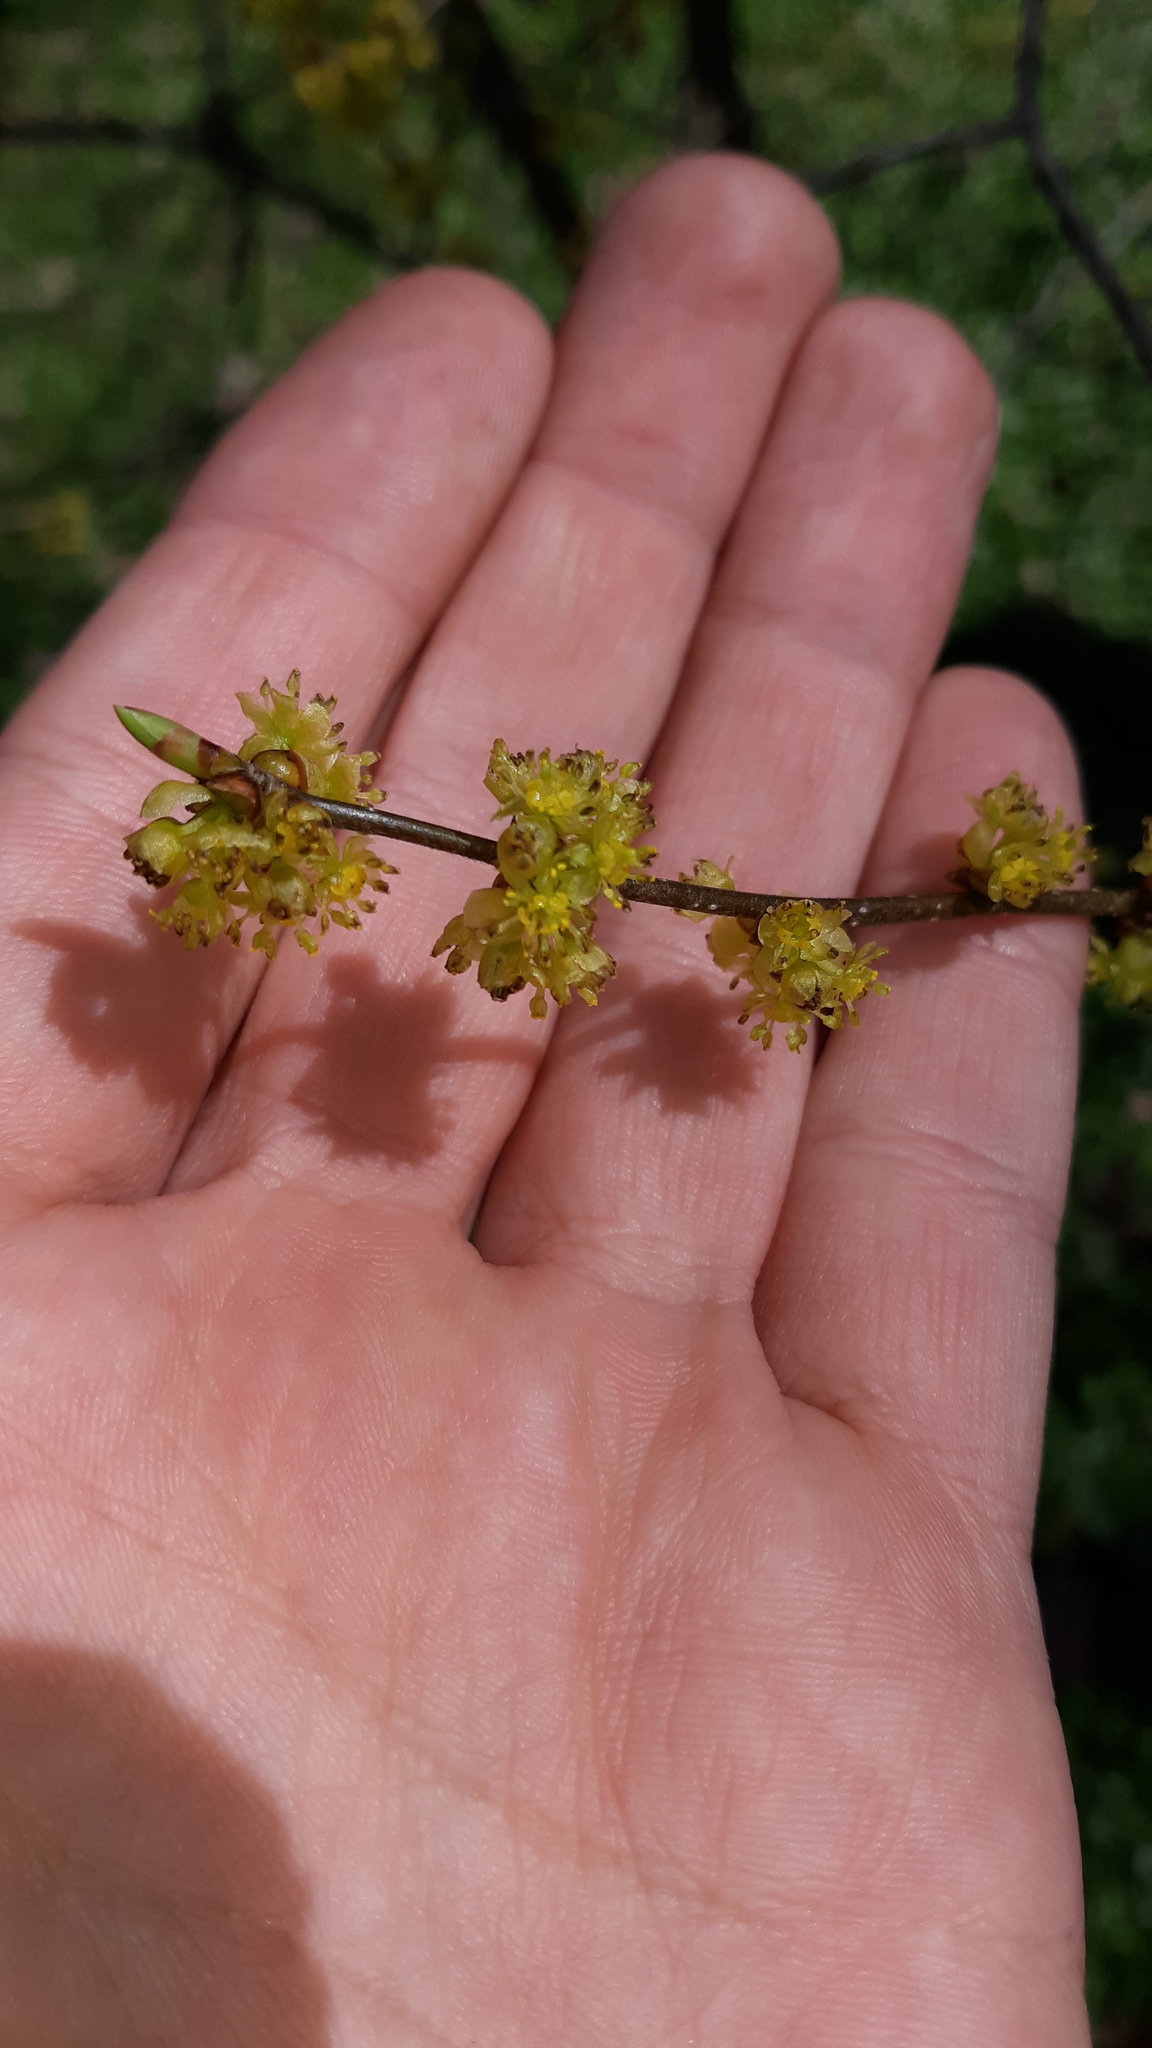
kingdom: Plantae
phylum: Tracheophyta
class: Magnoliopsida
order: Laurales
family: Lauraceae
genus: Lindera
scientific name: Lindera benzoin
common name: Spicebush
